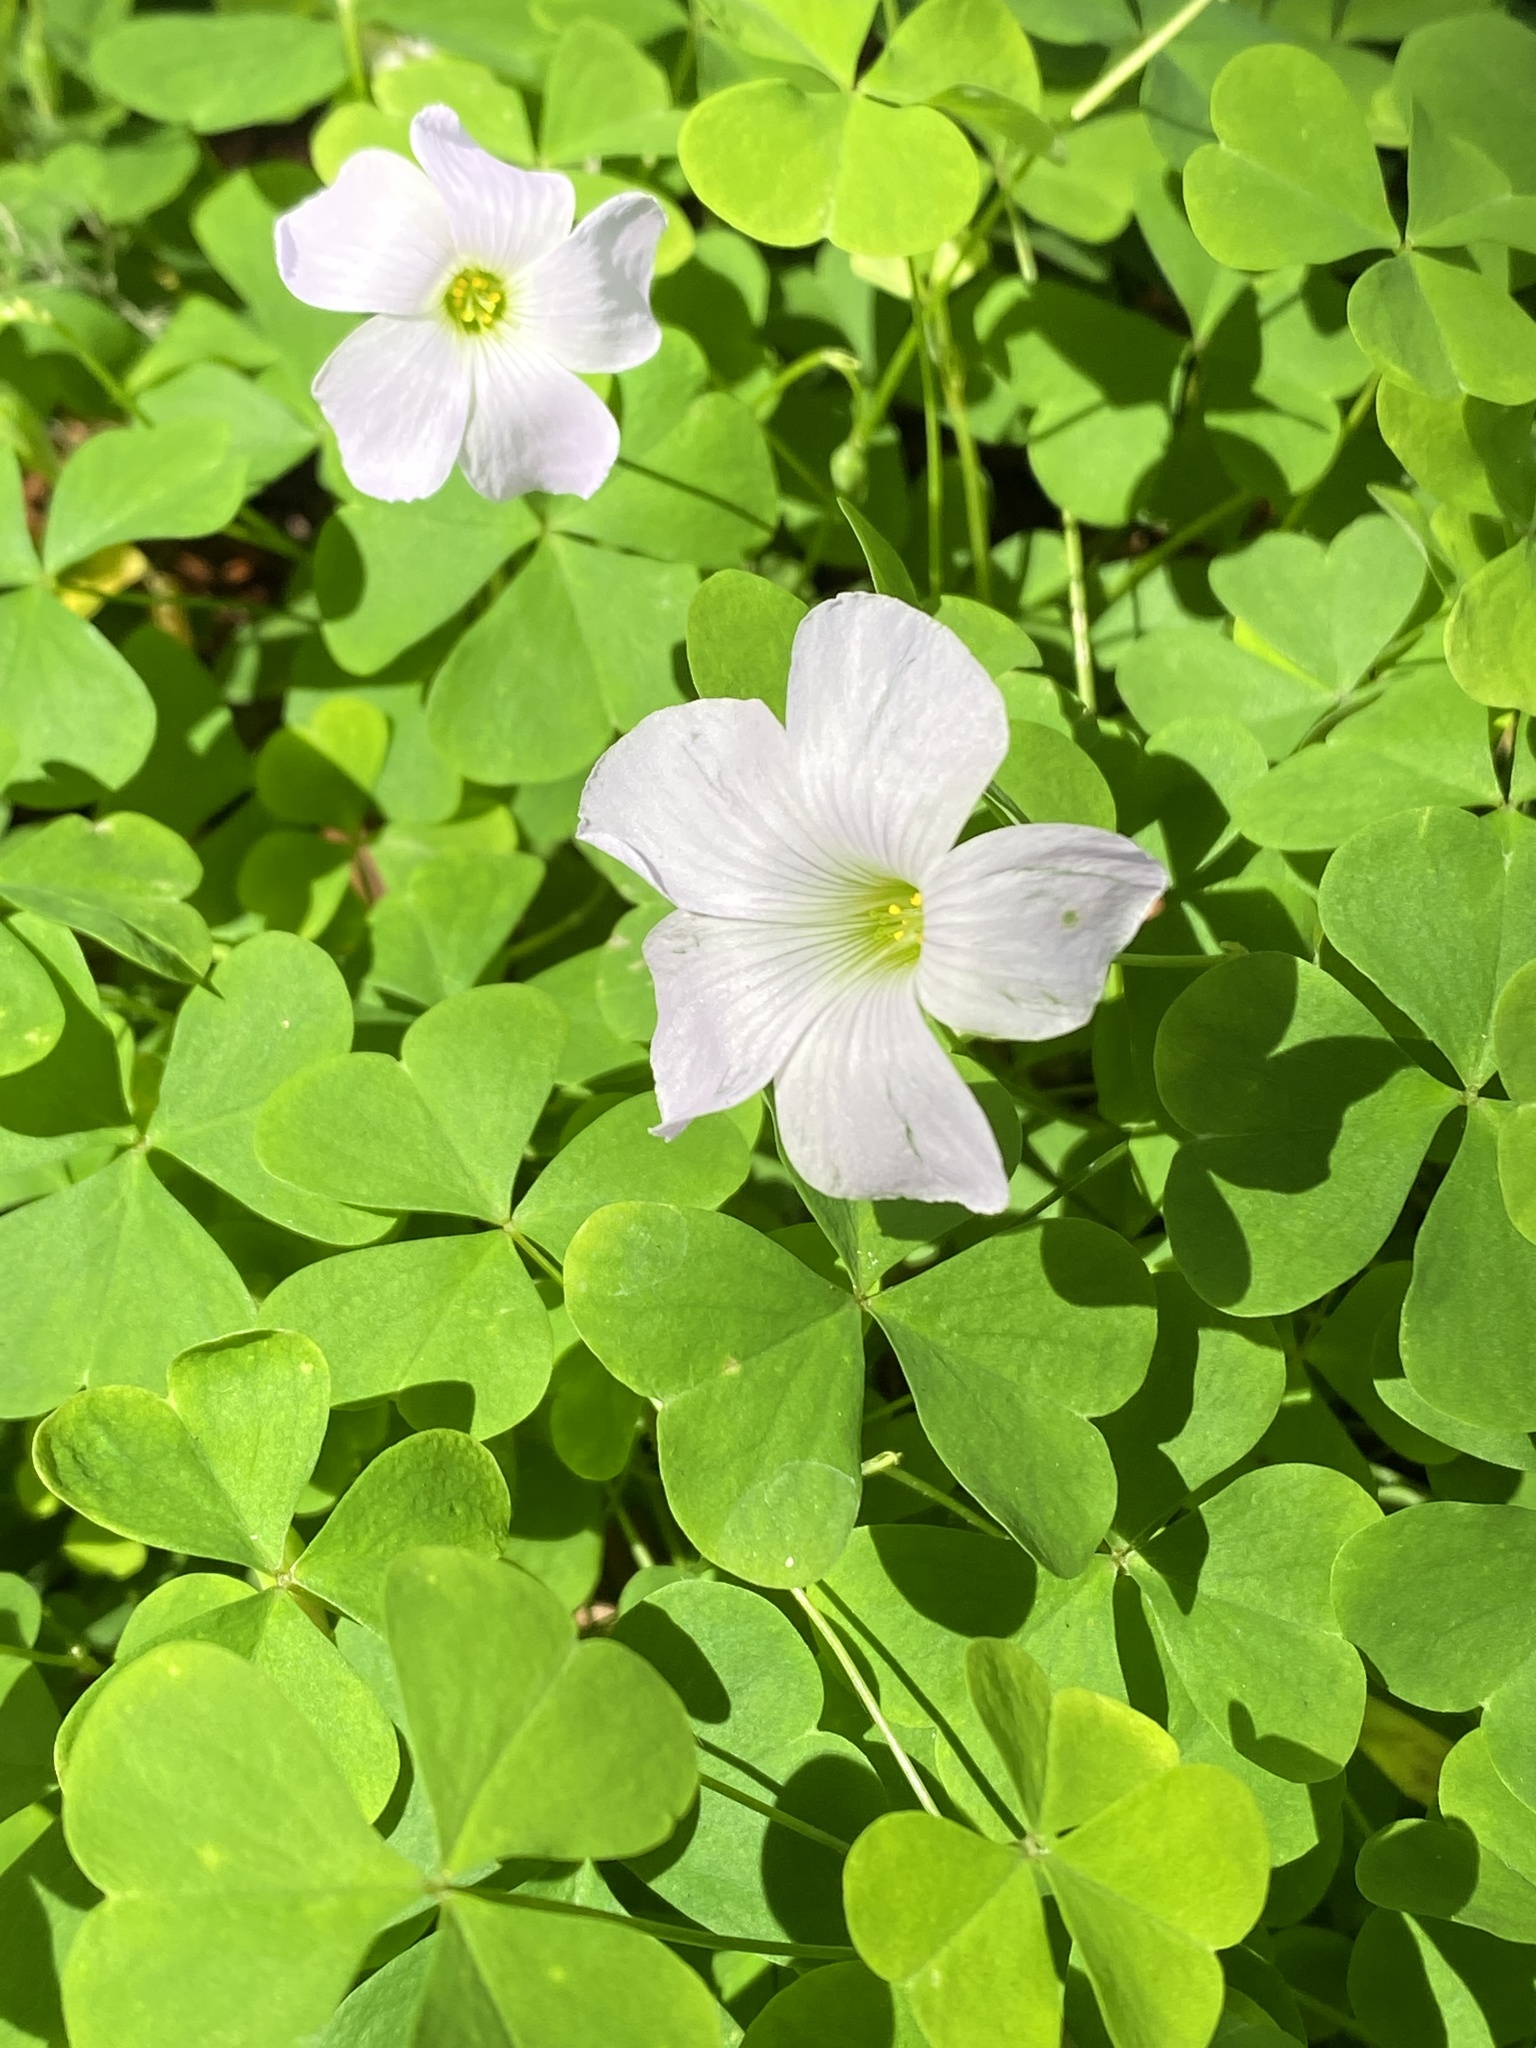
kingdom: Plantae
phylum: Tracheophyta
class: Magnoliopsida
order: Oxalidales
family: Oxalidaceae
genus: Oxalis
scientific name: Oxalis incarnata
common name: Pale pink-sorrel
